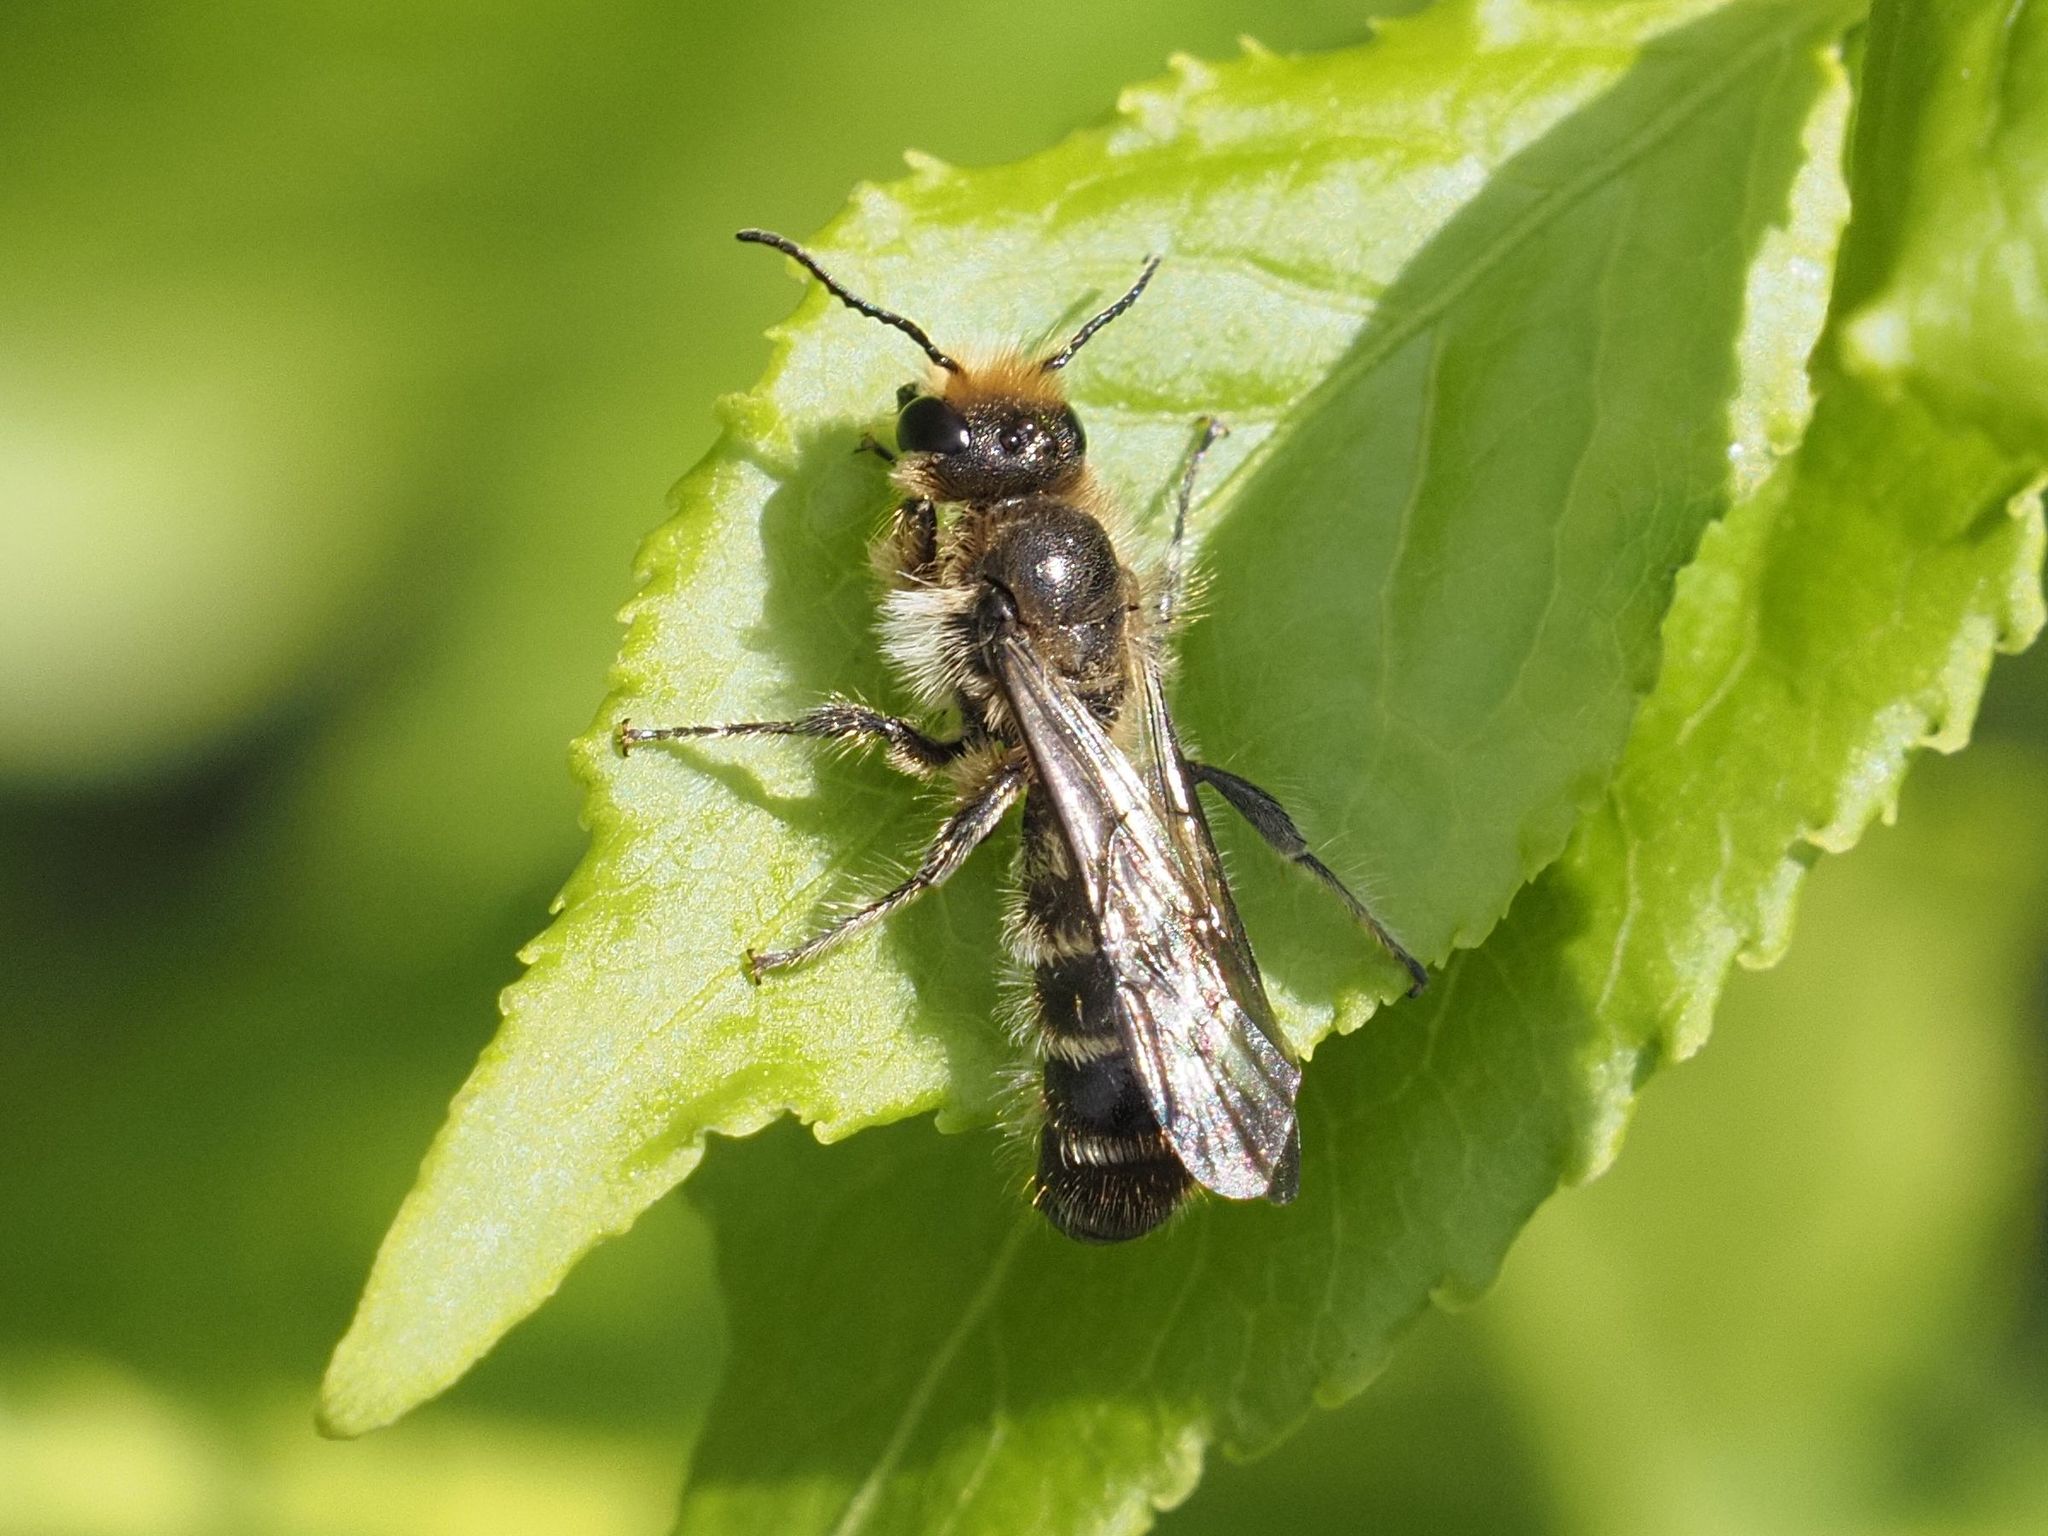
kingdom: Animalia
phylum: Arthropoda
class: Insecta
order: Hymenoptera
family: Megachilidae
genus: Chelostoma
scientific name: Chelostoma florisomne
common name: Sleepy carpenter bee
